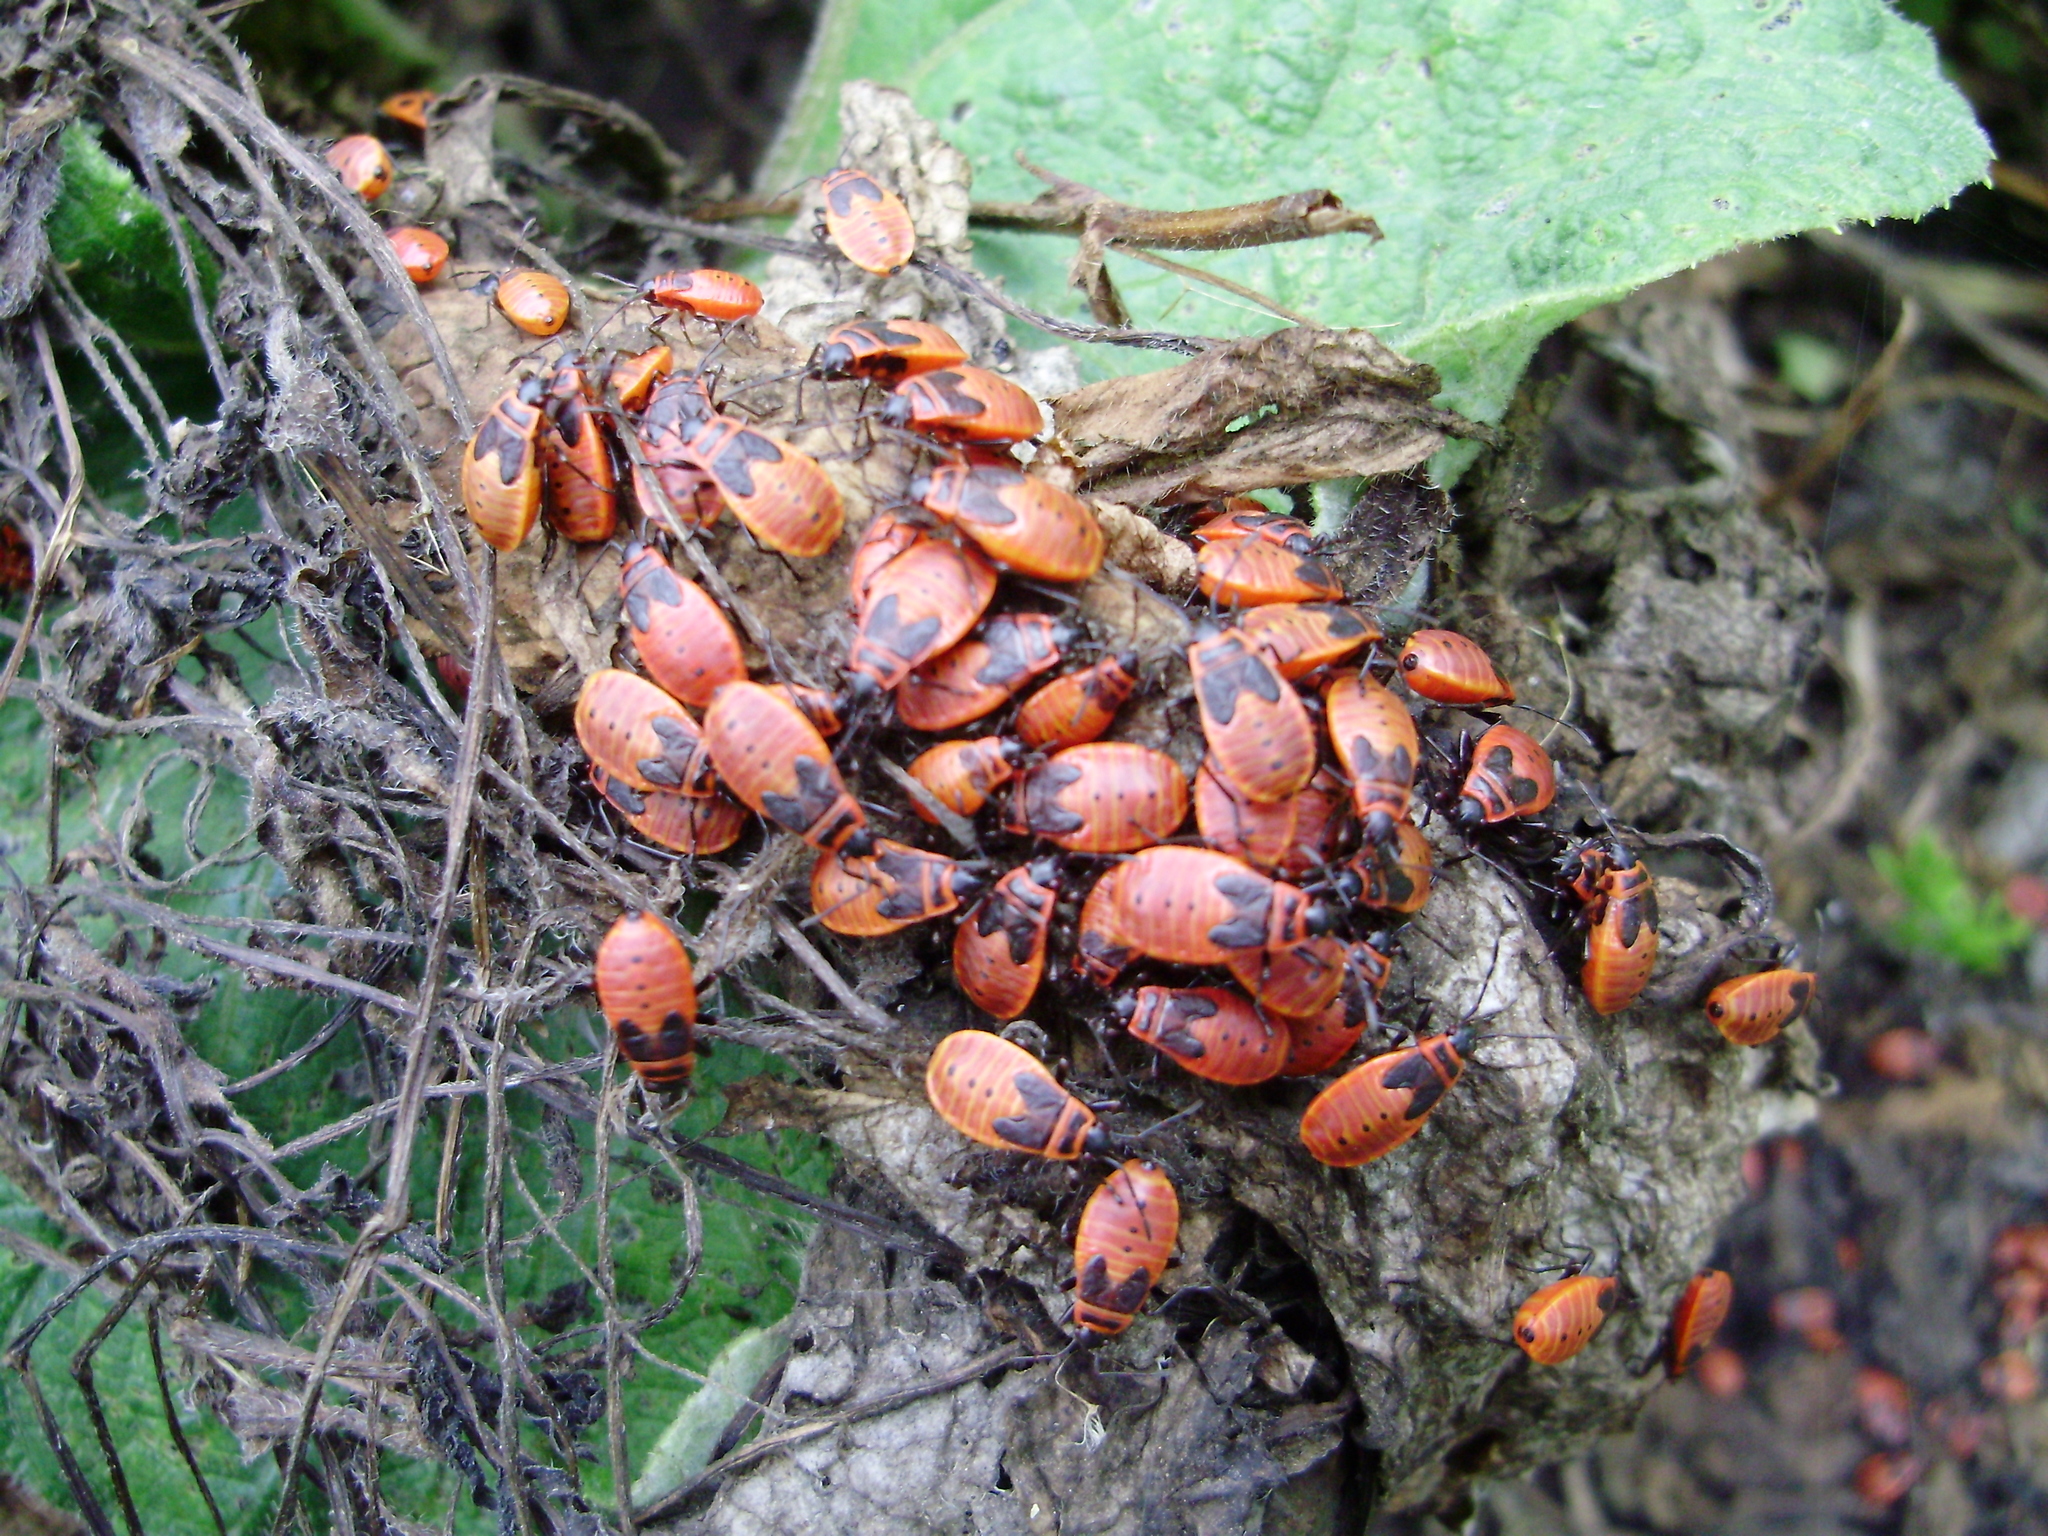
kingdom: Animalia
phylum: Arthropoda
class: Insecta
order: Hemiptera
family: Pyrrhocoridae
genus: Pyrrhocoris
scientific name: Pyrrhocoris apterus
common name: Firebug
